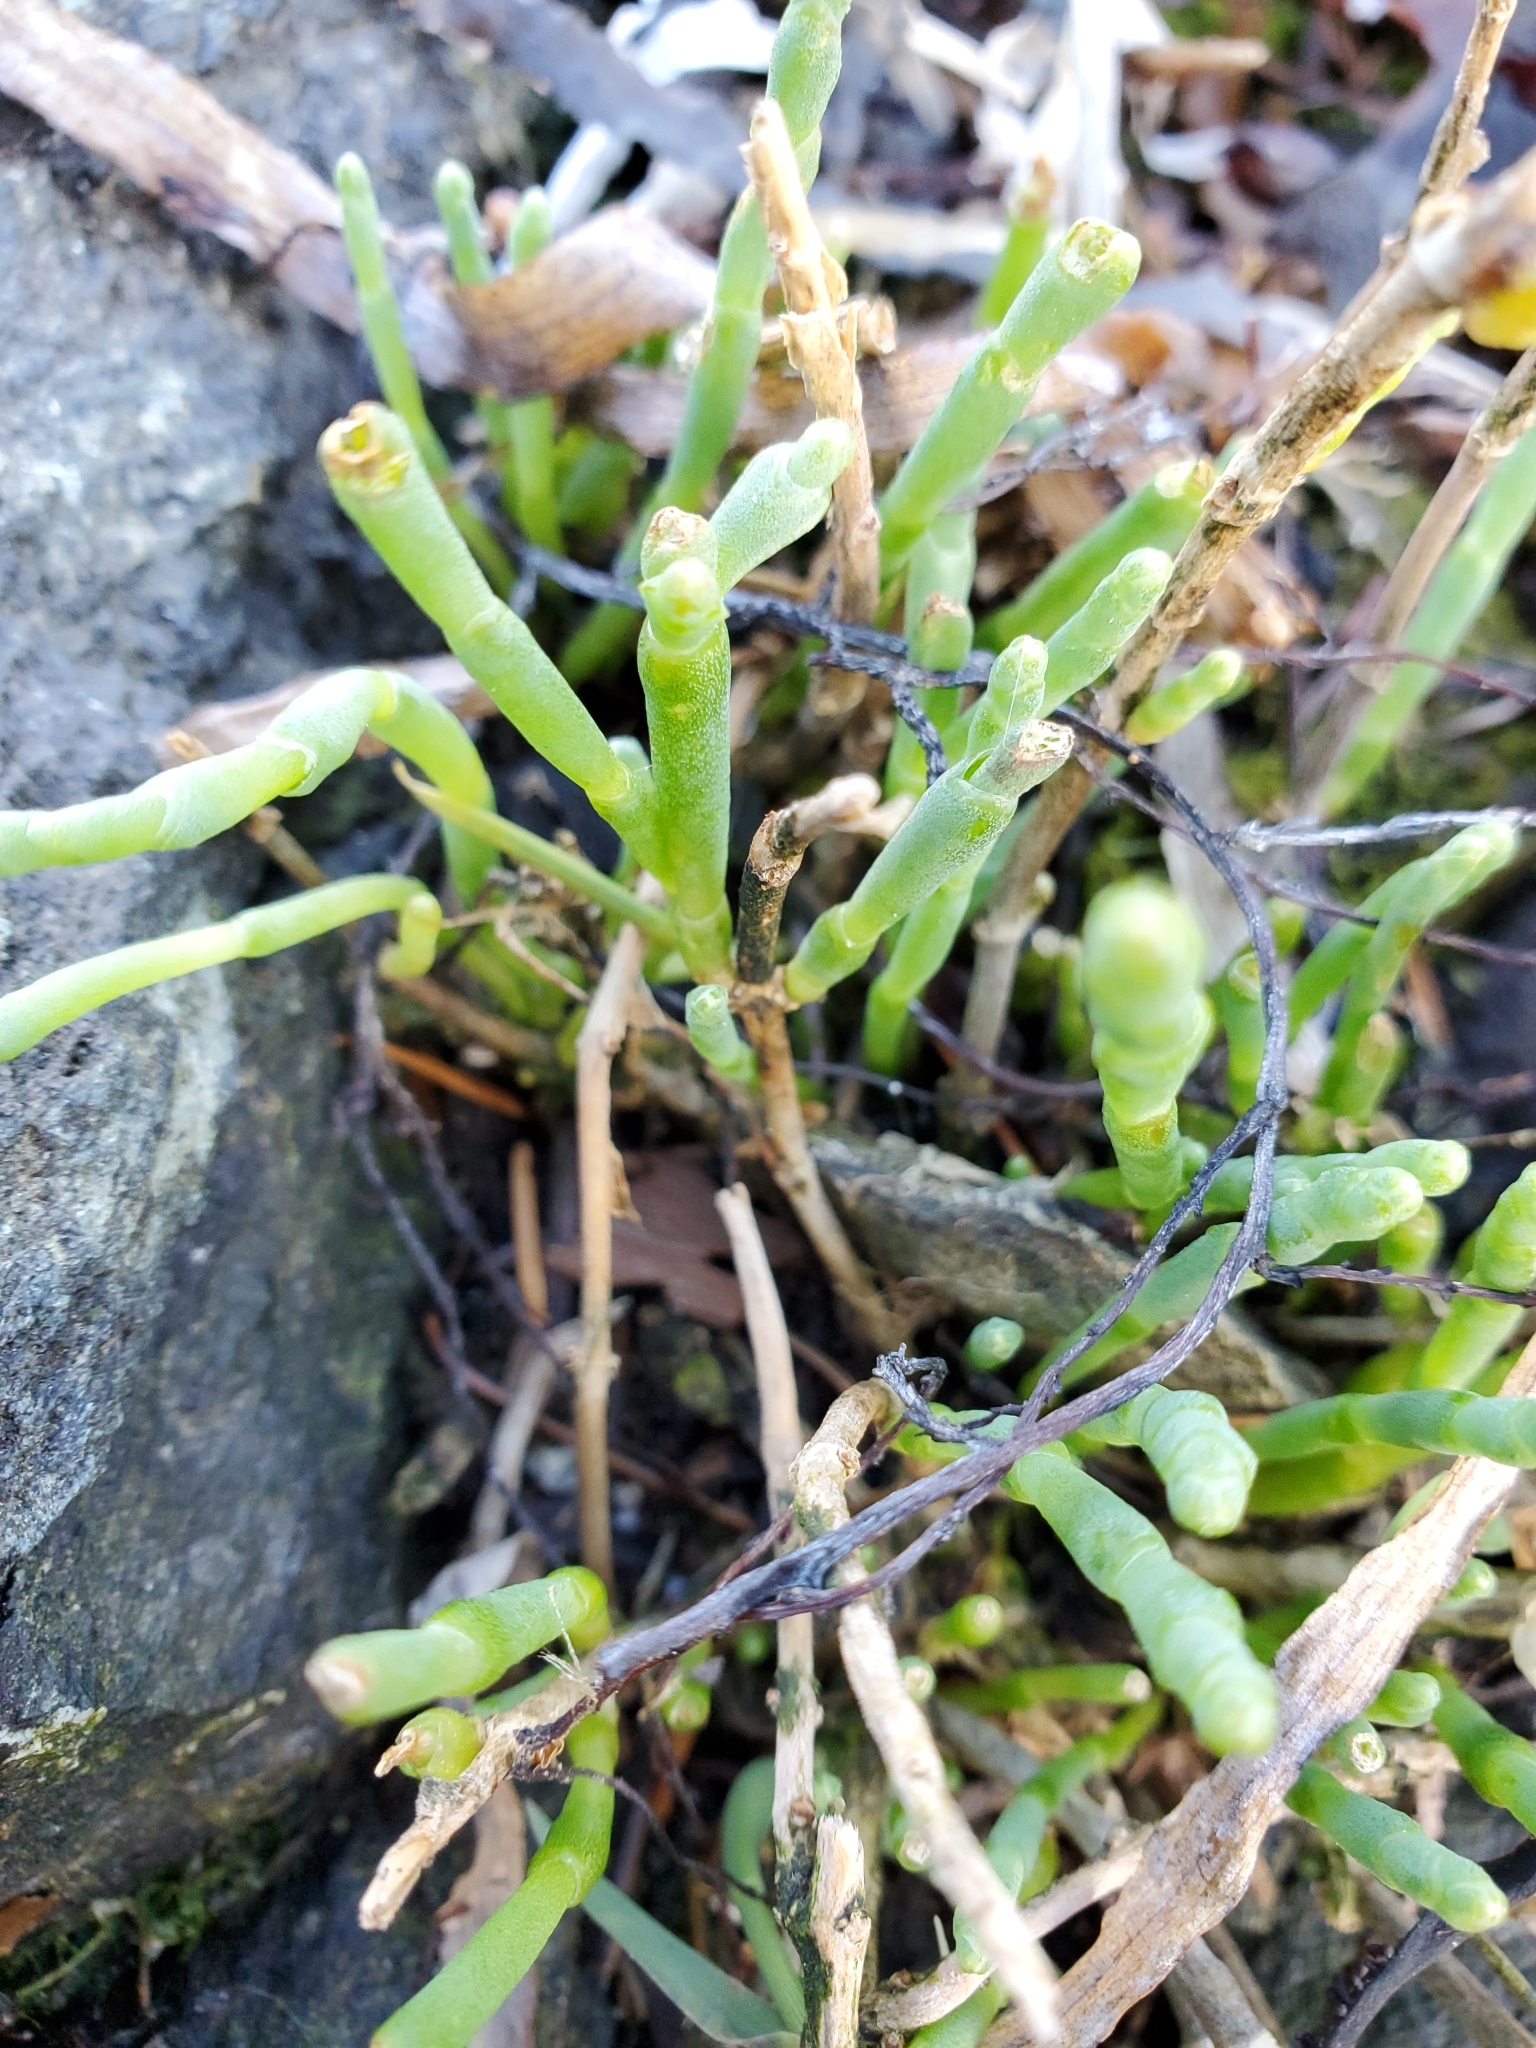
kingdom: Plantae
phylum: Tracheophyta
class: Magnoliopsida
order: Caryophyllales
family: Amaranthaceae
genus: Salicornia
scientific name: Salicornia pacifica
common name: Pacific glasswort
